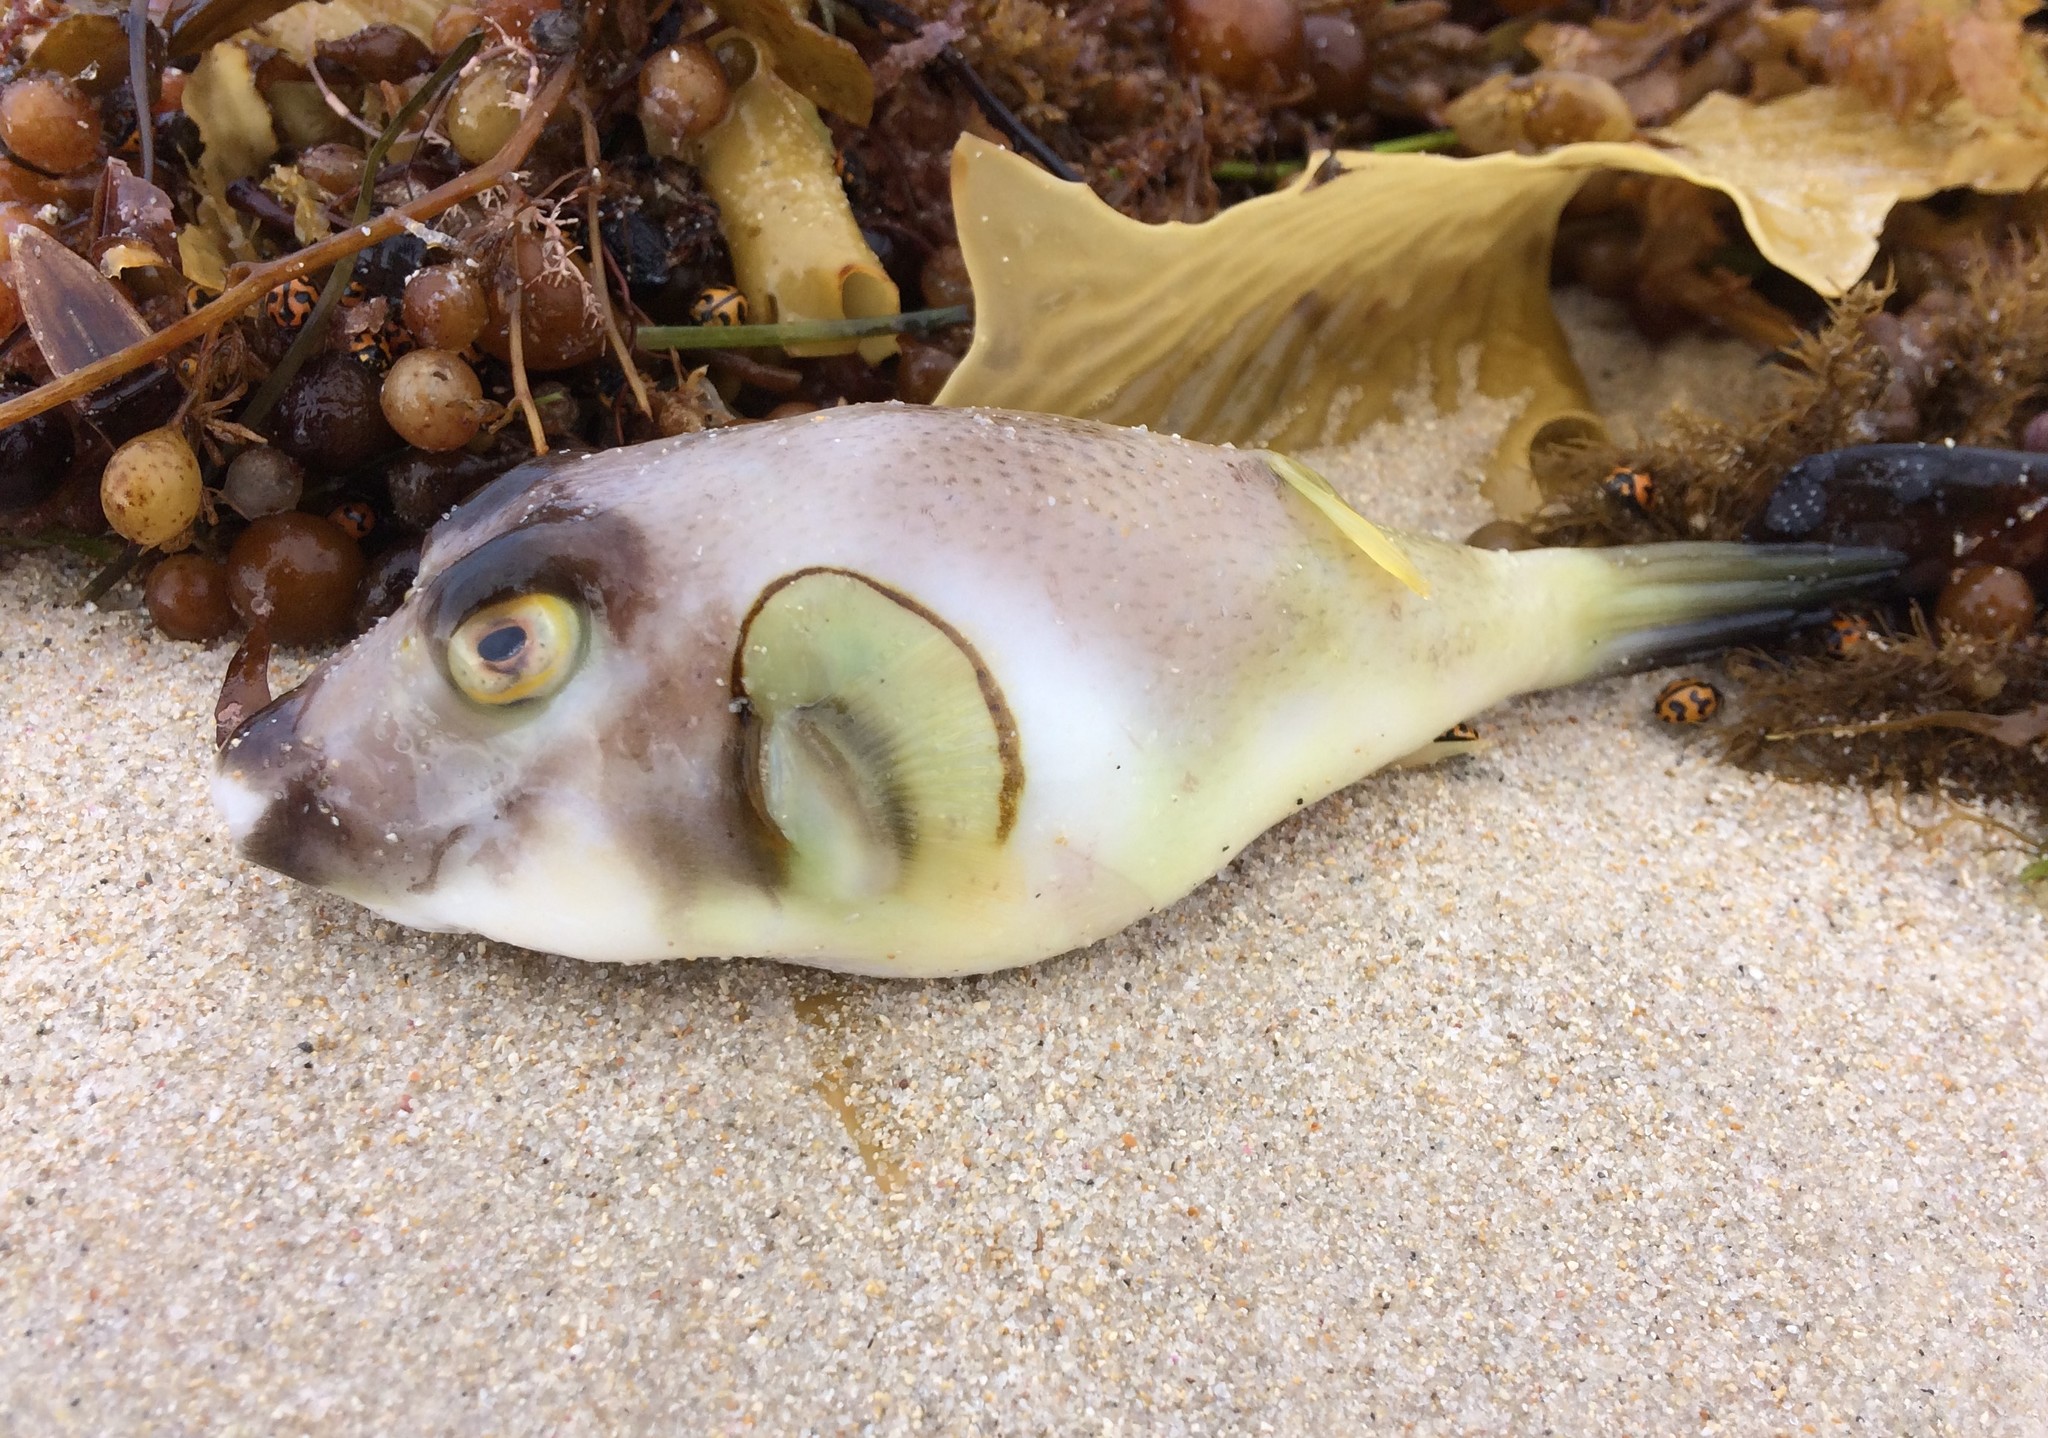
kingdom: Animalia
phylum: Chordata
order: Tetraodontiformes
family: Tetraodontidae
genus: Omegophora
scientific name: Omegophora armilla
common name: Ringed pufferfish
